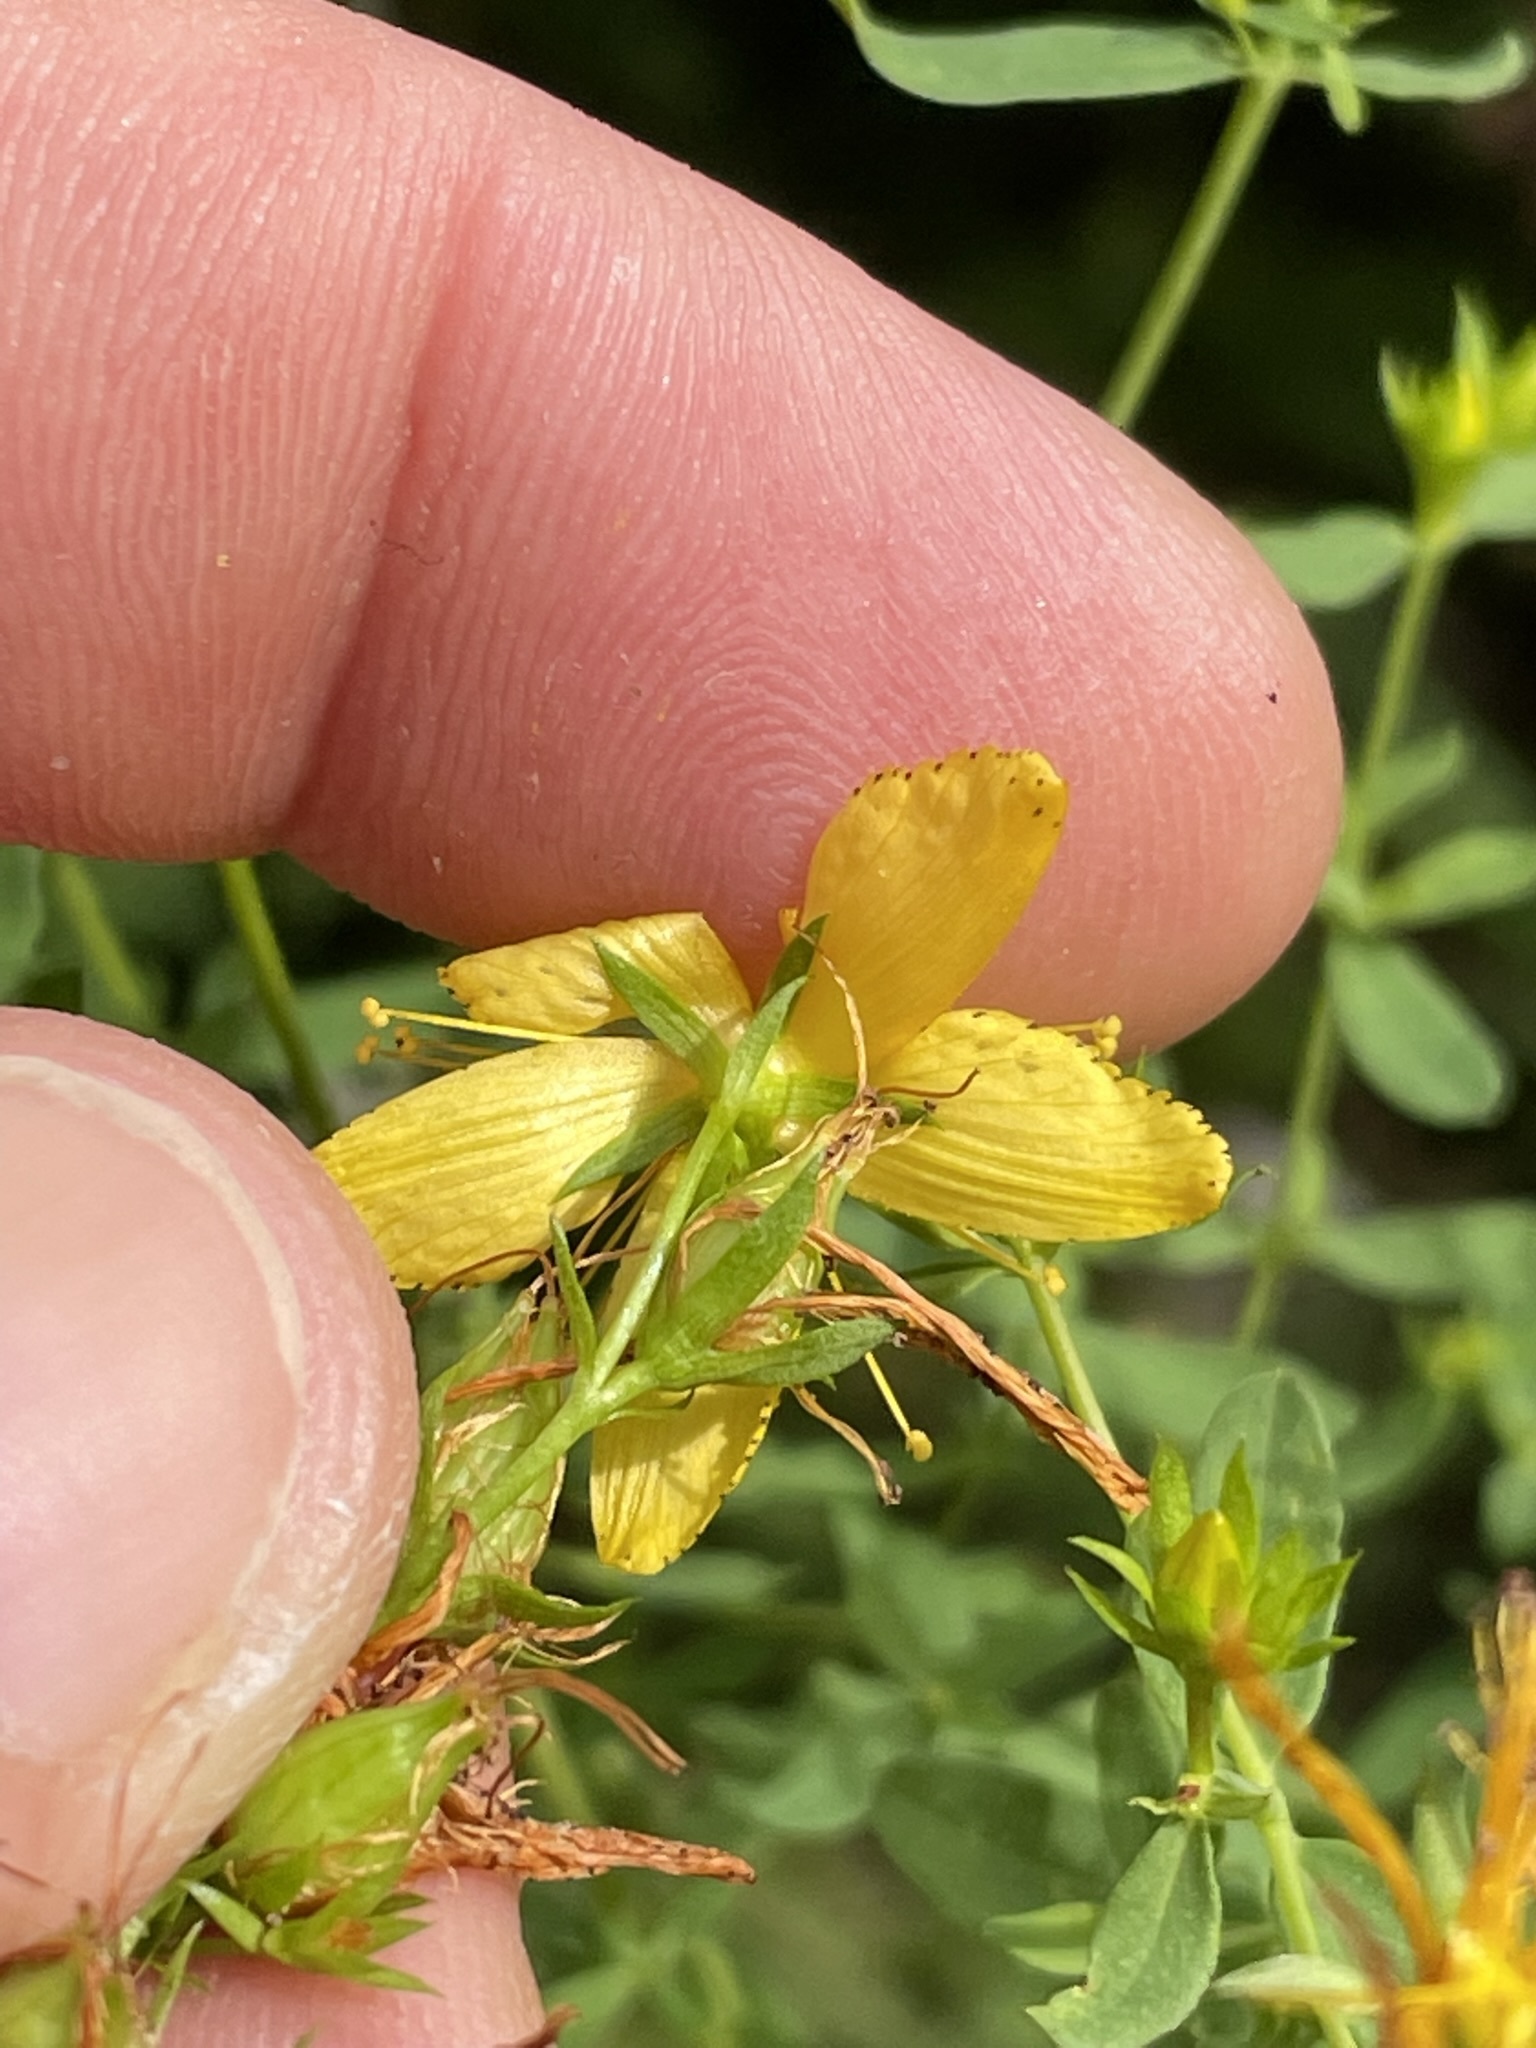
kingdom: Plantae
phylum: Tracheophyta
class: Magnoliopsida
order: Malpighiales
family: Hypericaceae
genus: Hypericum
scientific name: Hypericum perforatum
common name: Common st. johnswort
